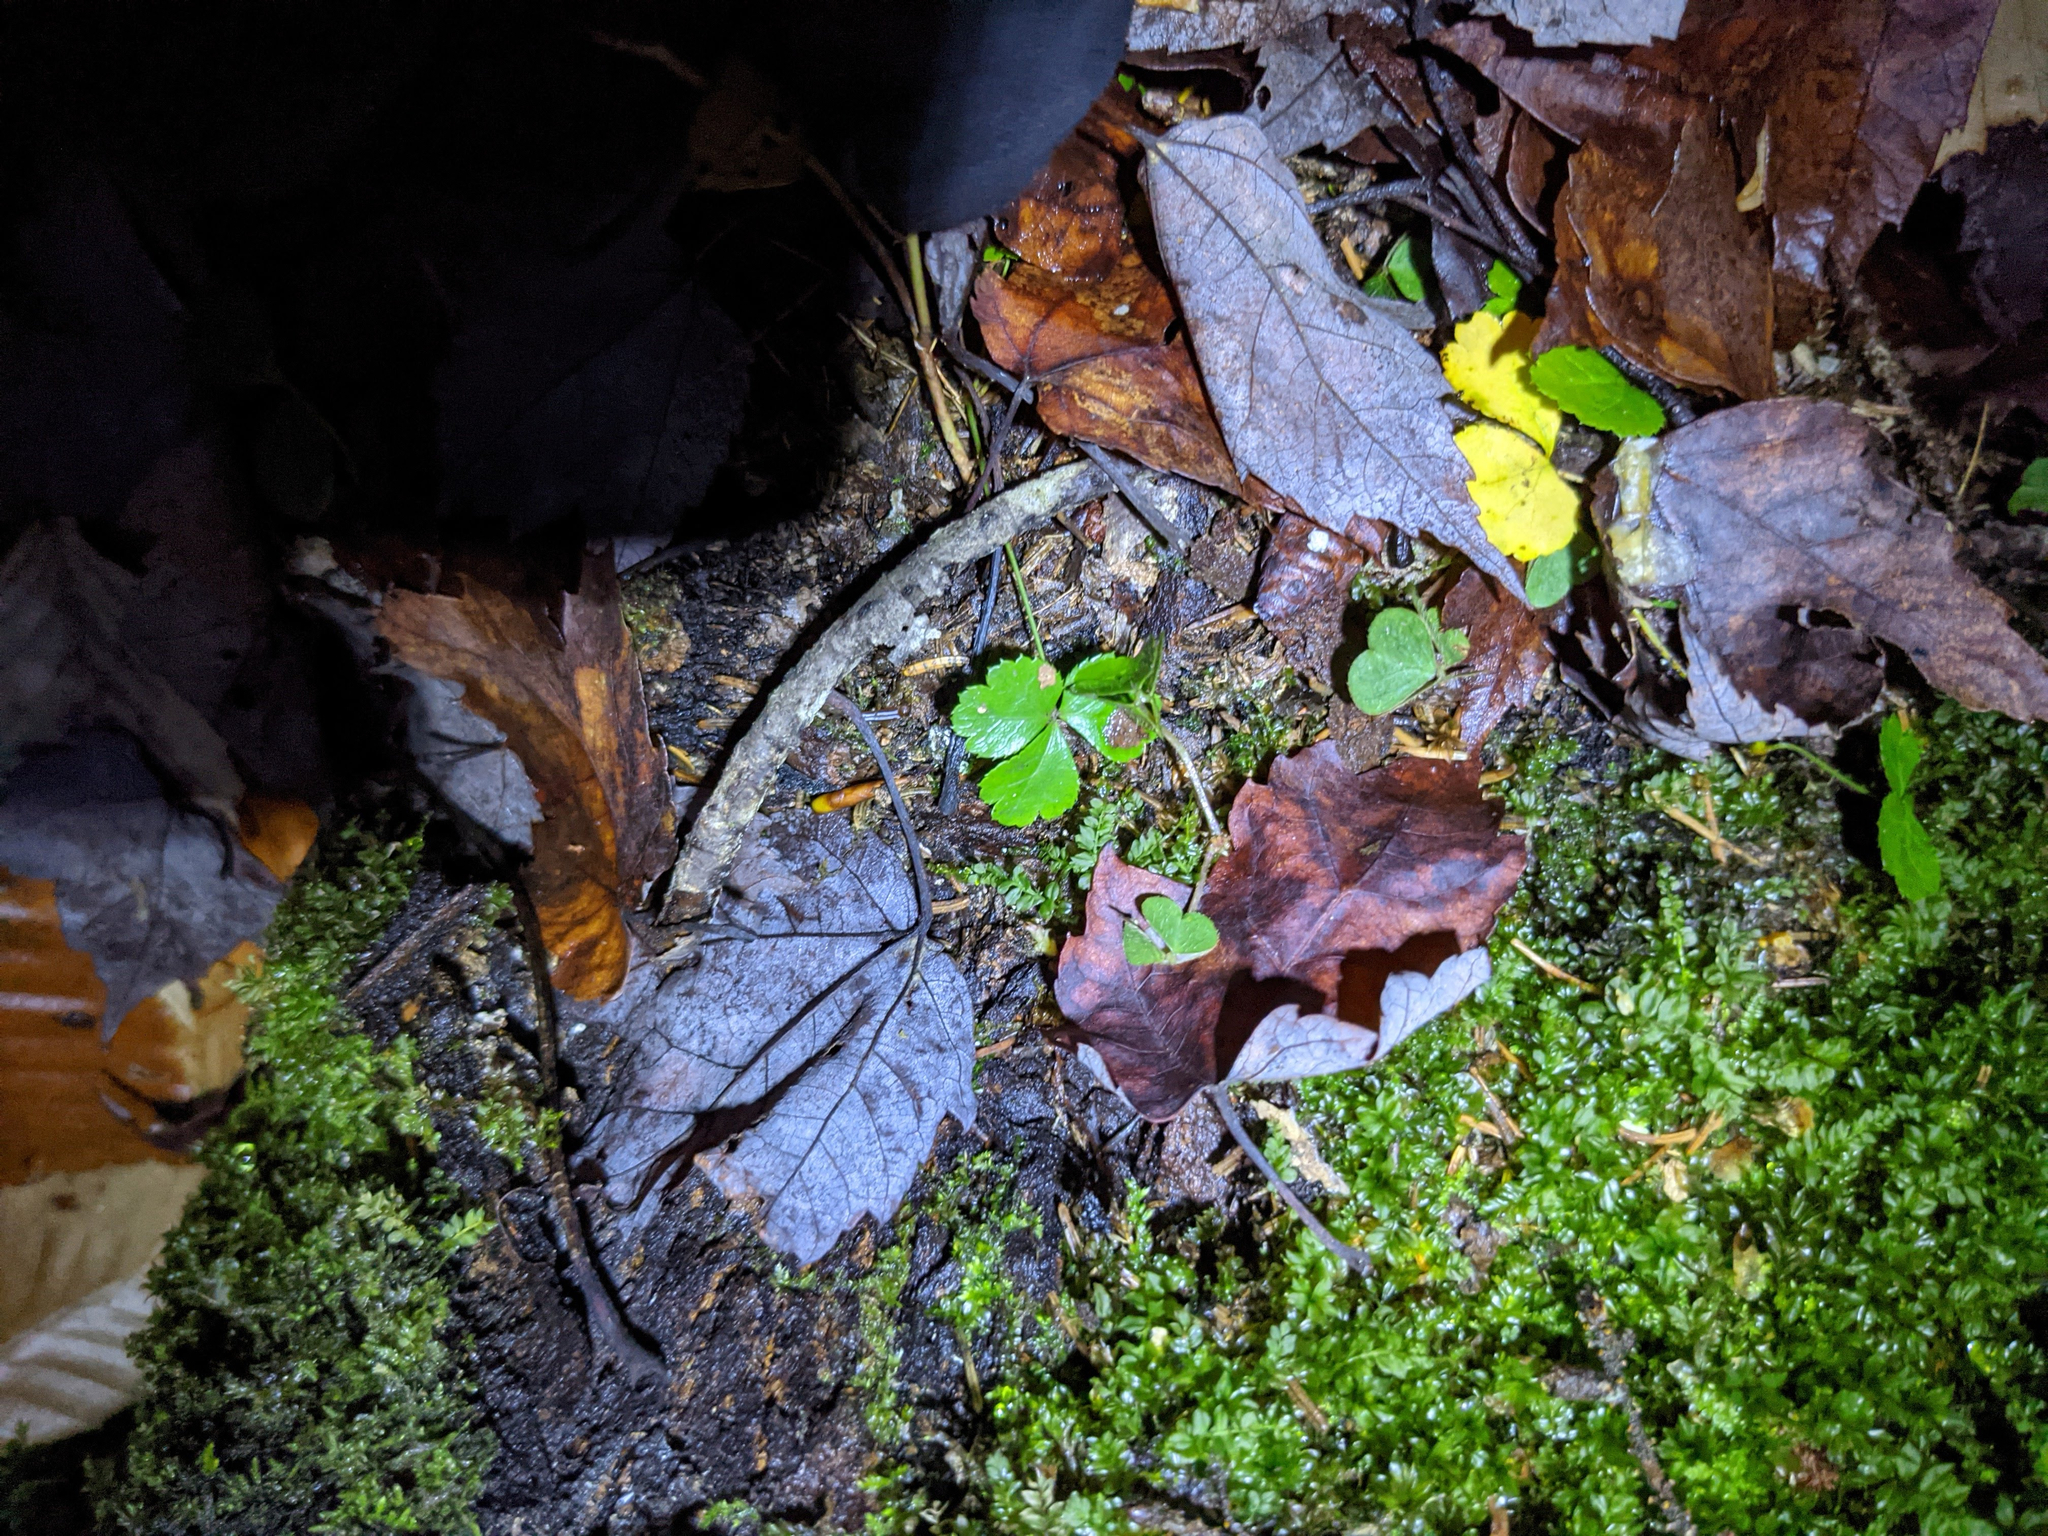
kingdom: Plantae
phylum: Tracheophyta
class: Magnoliopsida
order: Ranunculales
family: Ranunculaceae
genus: Coptis
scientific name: Coptis trifolia
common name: Canker-root
